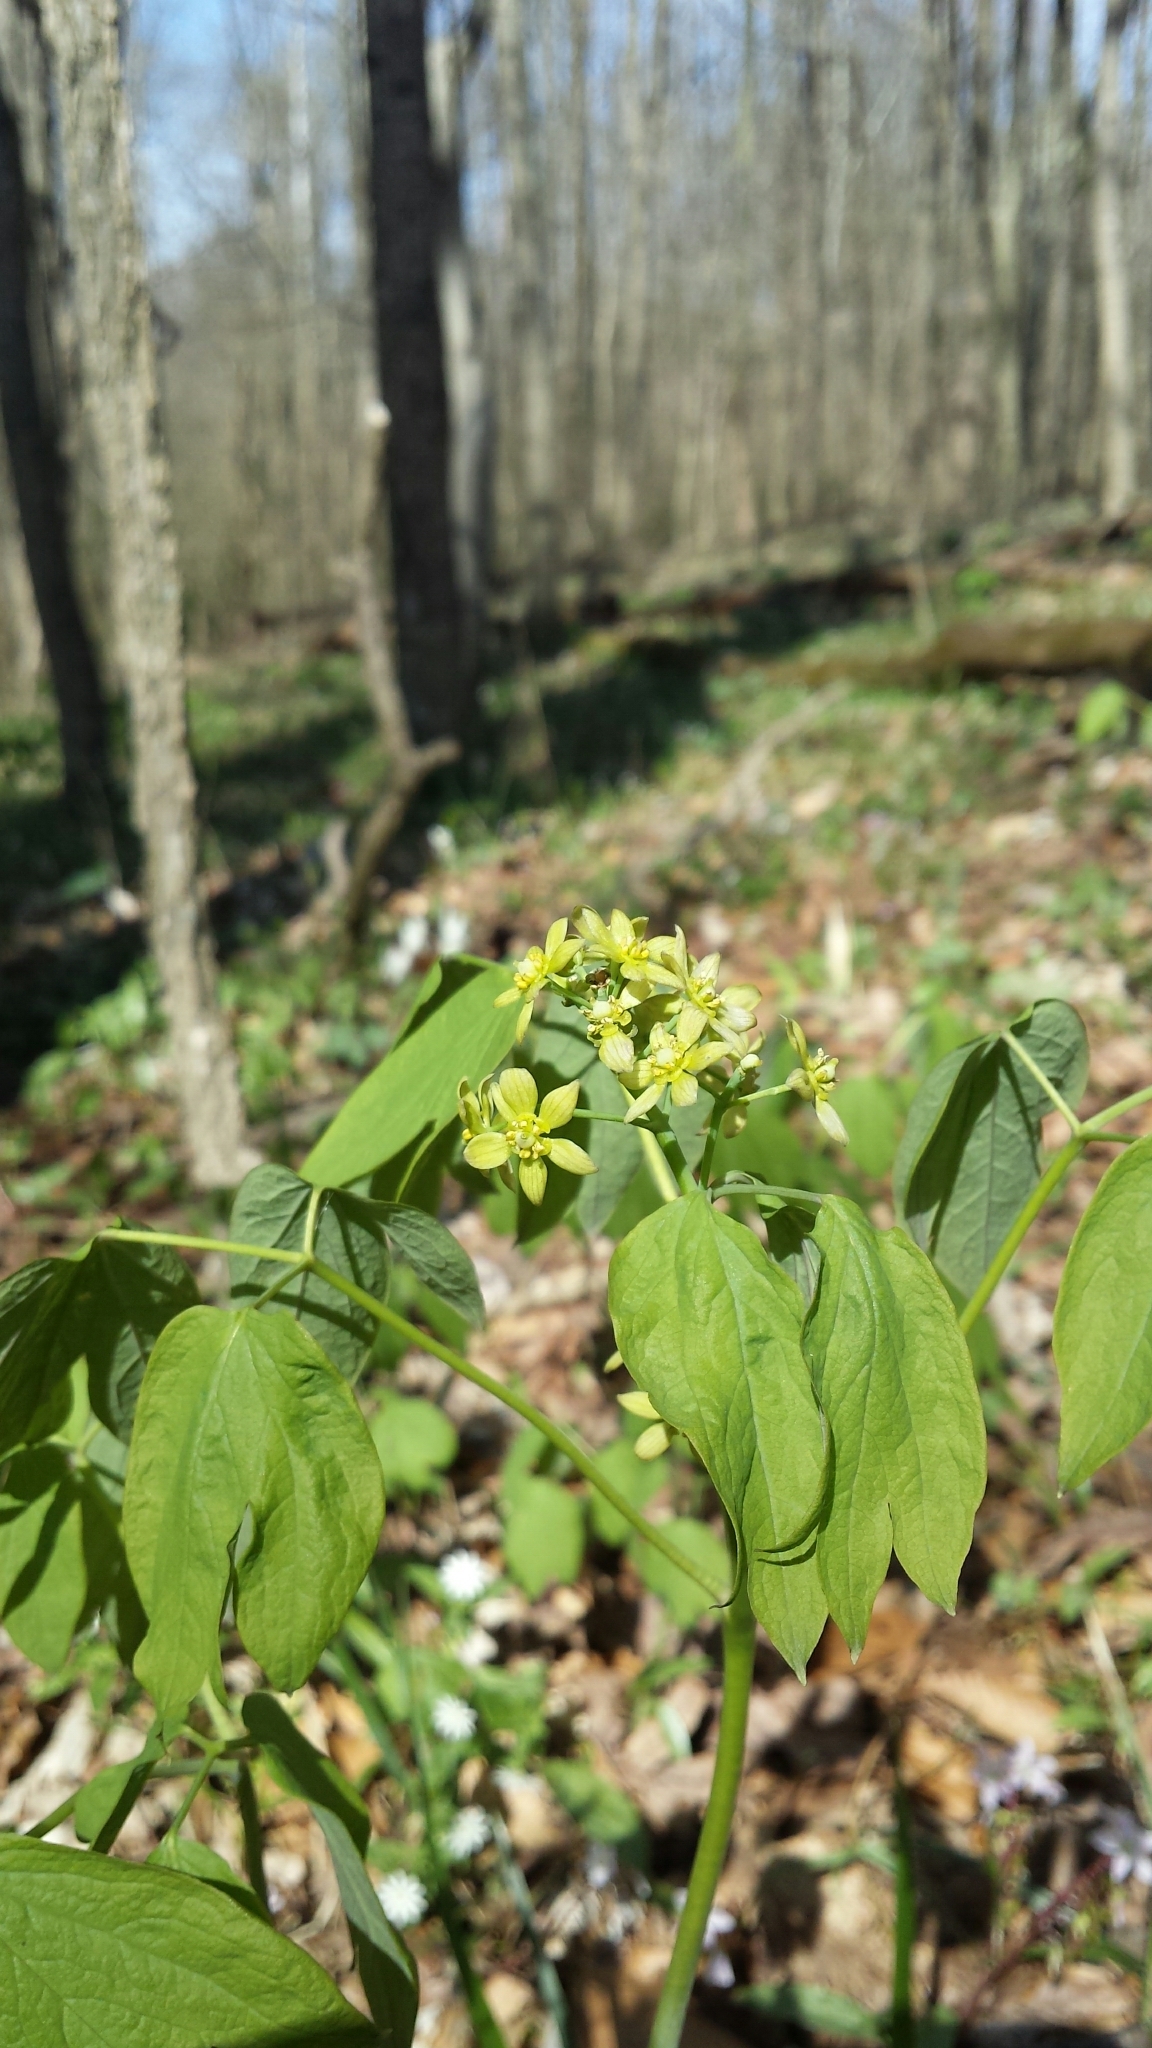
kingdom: Plantae
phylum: Tracheophyta
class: Magnoliopsida
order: Ranunculales
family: Berberidaceae
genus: Caulophyllum
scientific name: Caulophyllum thalictroides
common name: Blue cohosh
